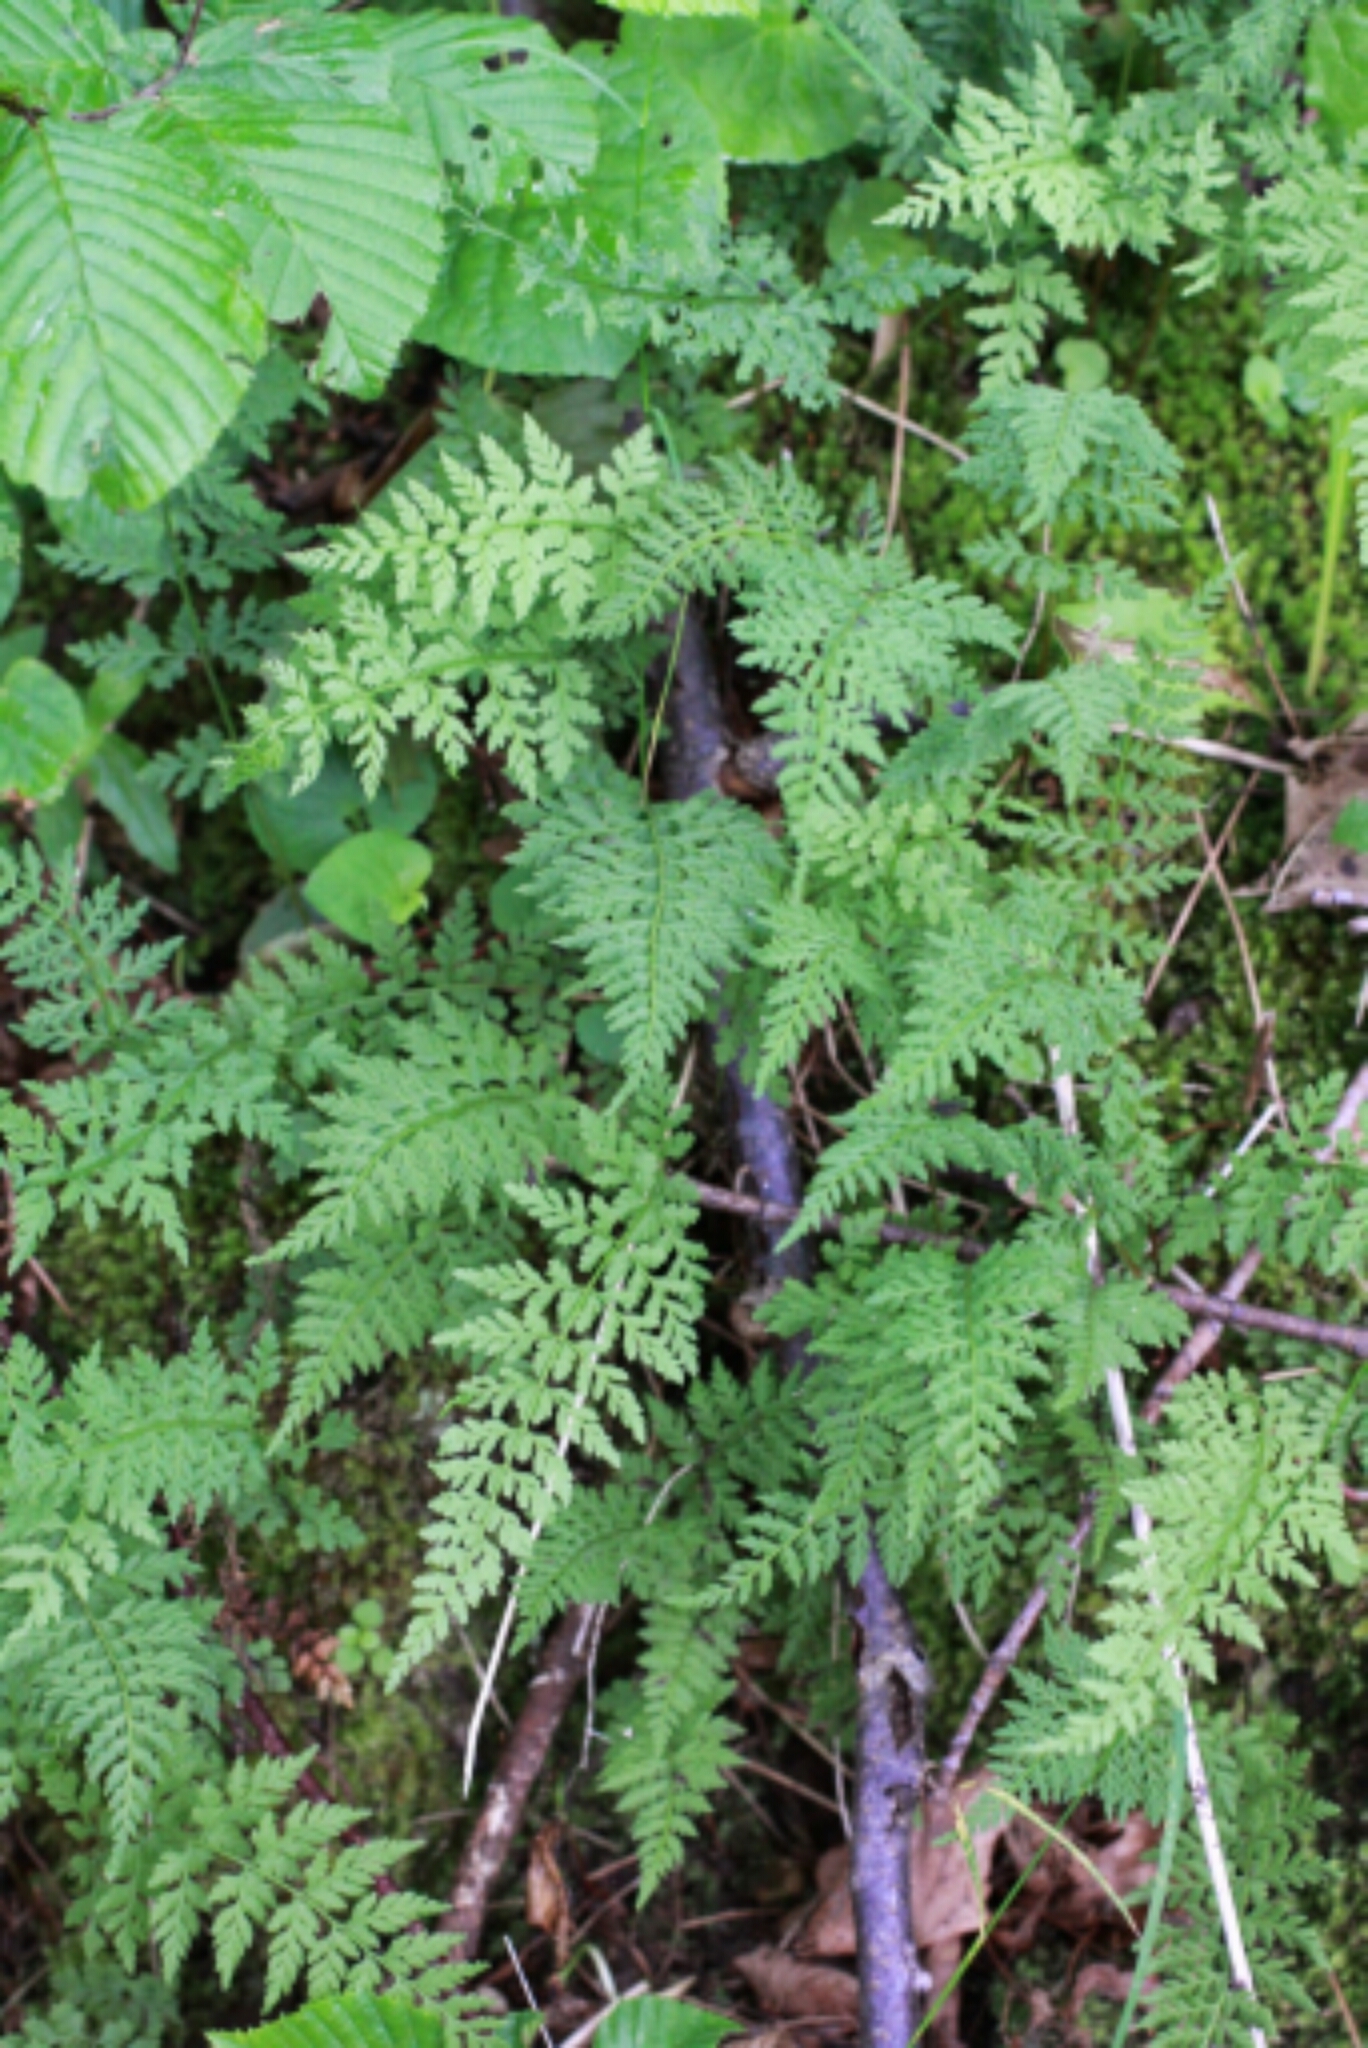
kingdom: Plantae
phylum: Tracheophyta
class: Polypodiopsida
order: Polypodiales
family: Cystopteridaceae
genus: Cystopteris
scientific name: Cystopteris fragilis
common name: Brittle bladder fern
